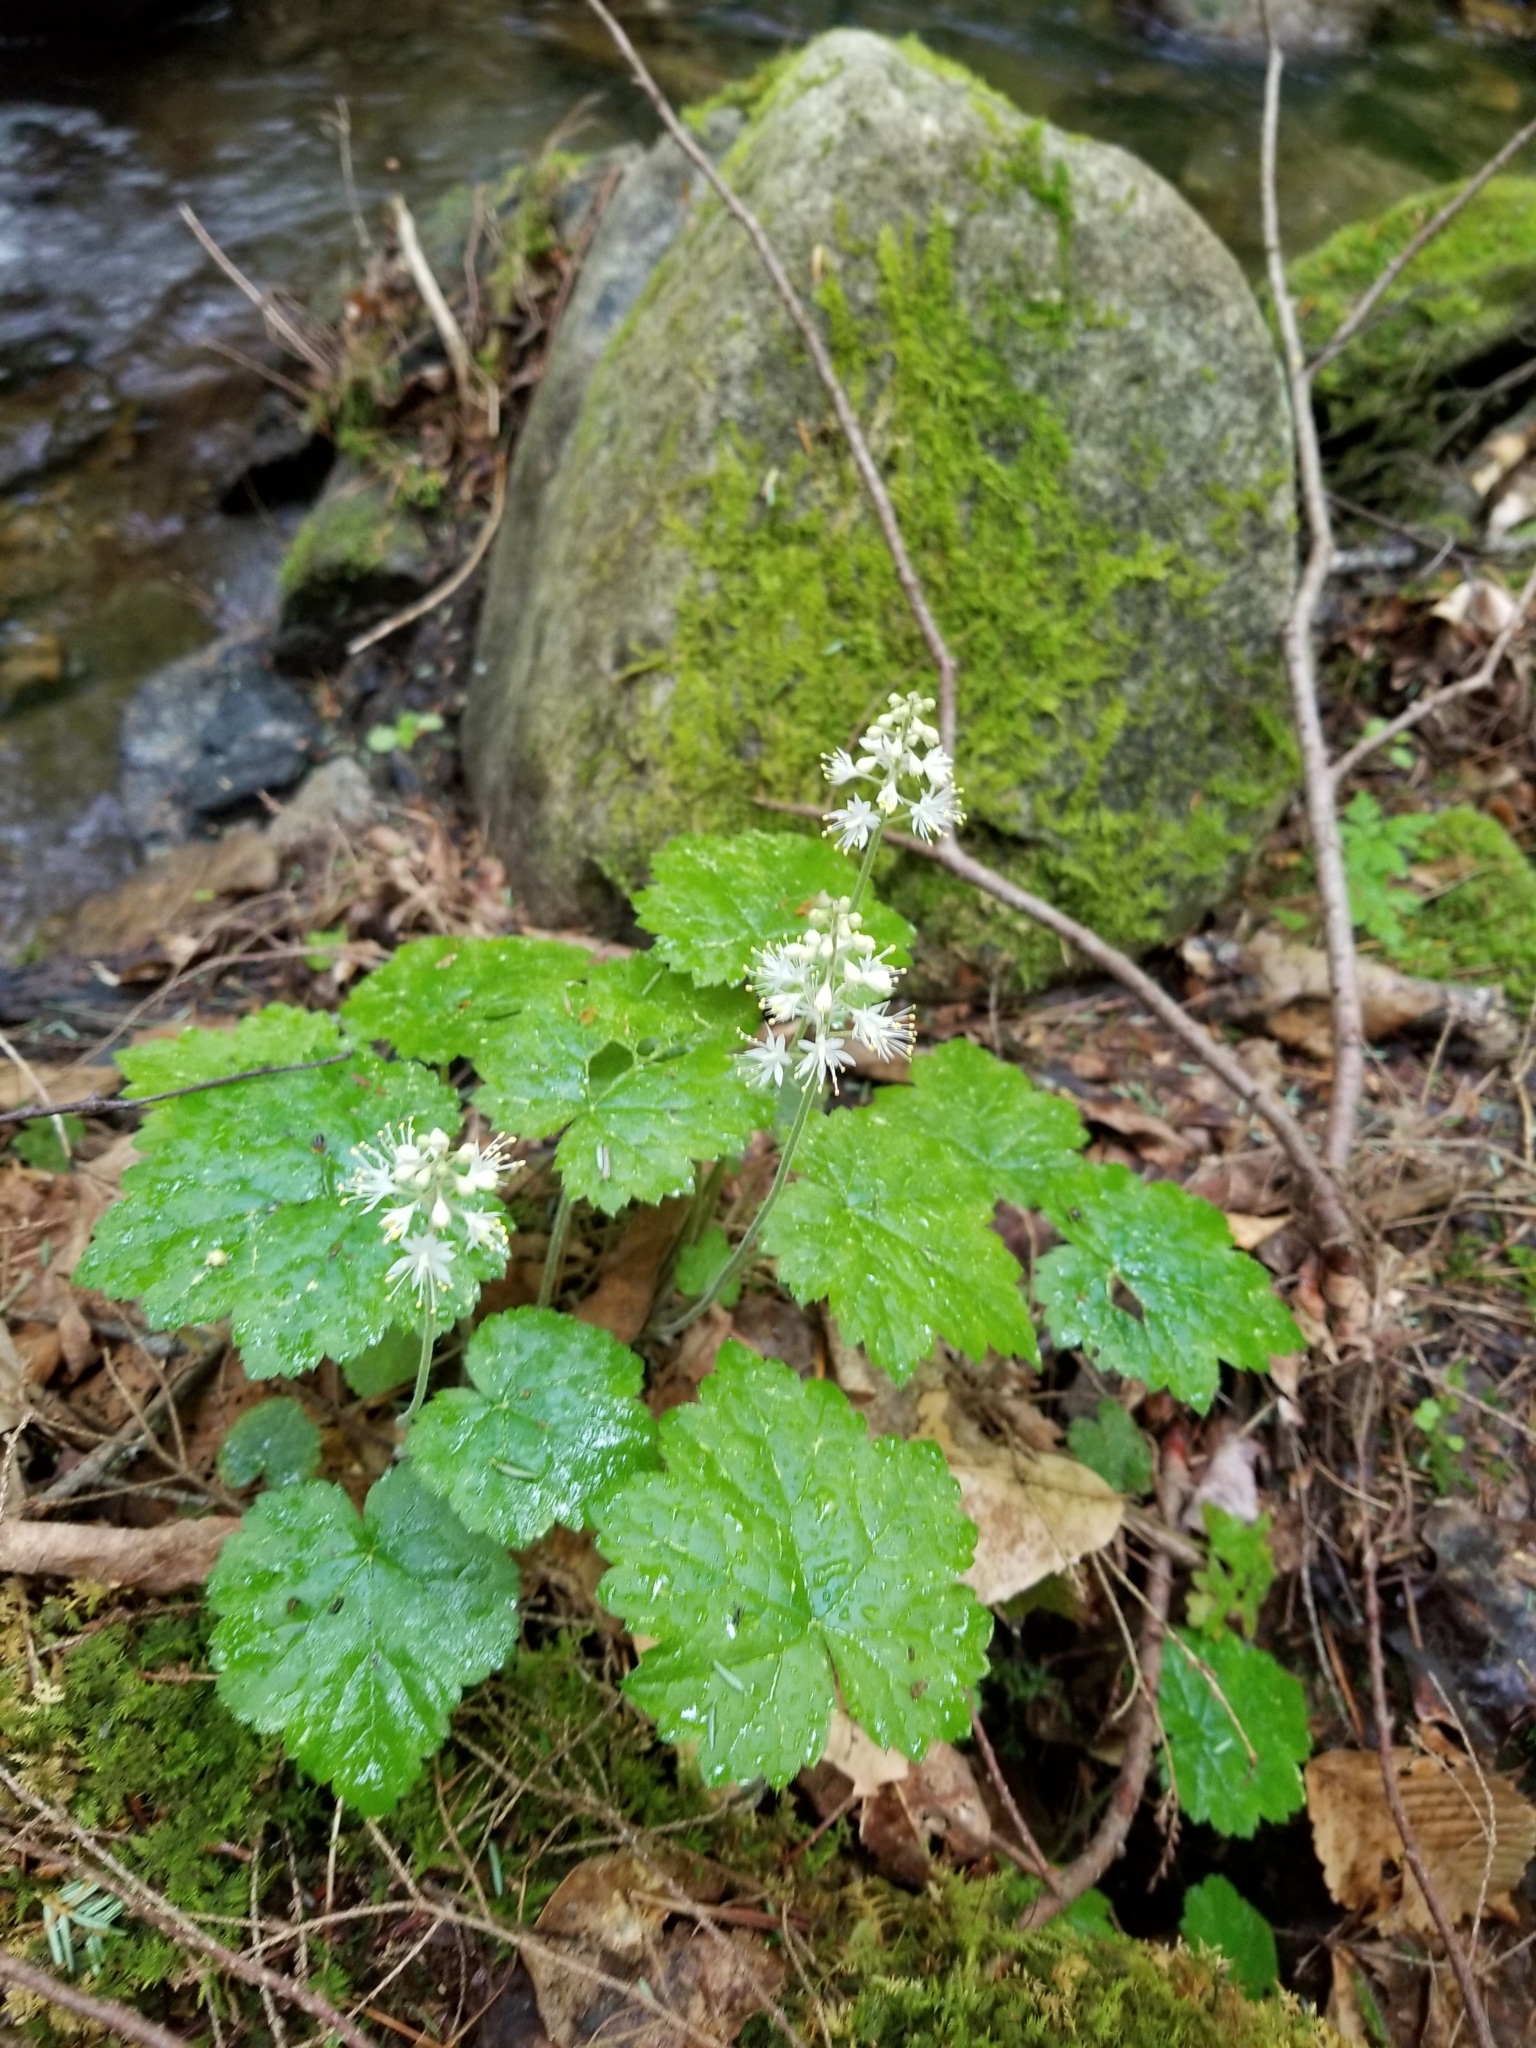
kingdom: Plantae
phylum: Tracheophyta
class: Magnoliopsida
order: Saxifragales
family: Saxifragaceae
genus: Tiarella
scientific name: Tiarella stolonifera
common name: Stoloniferous foamflower
